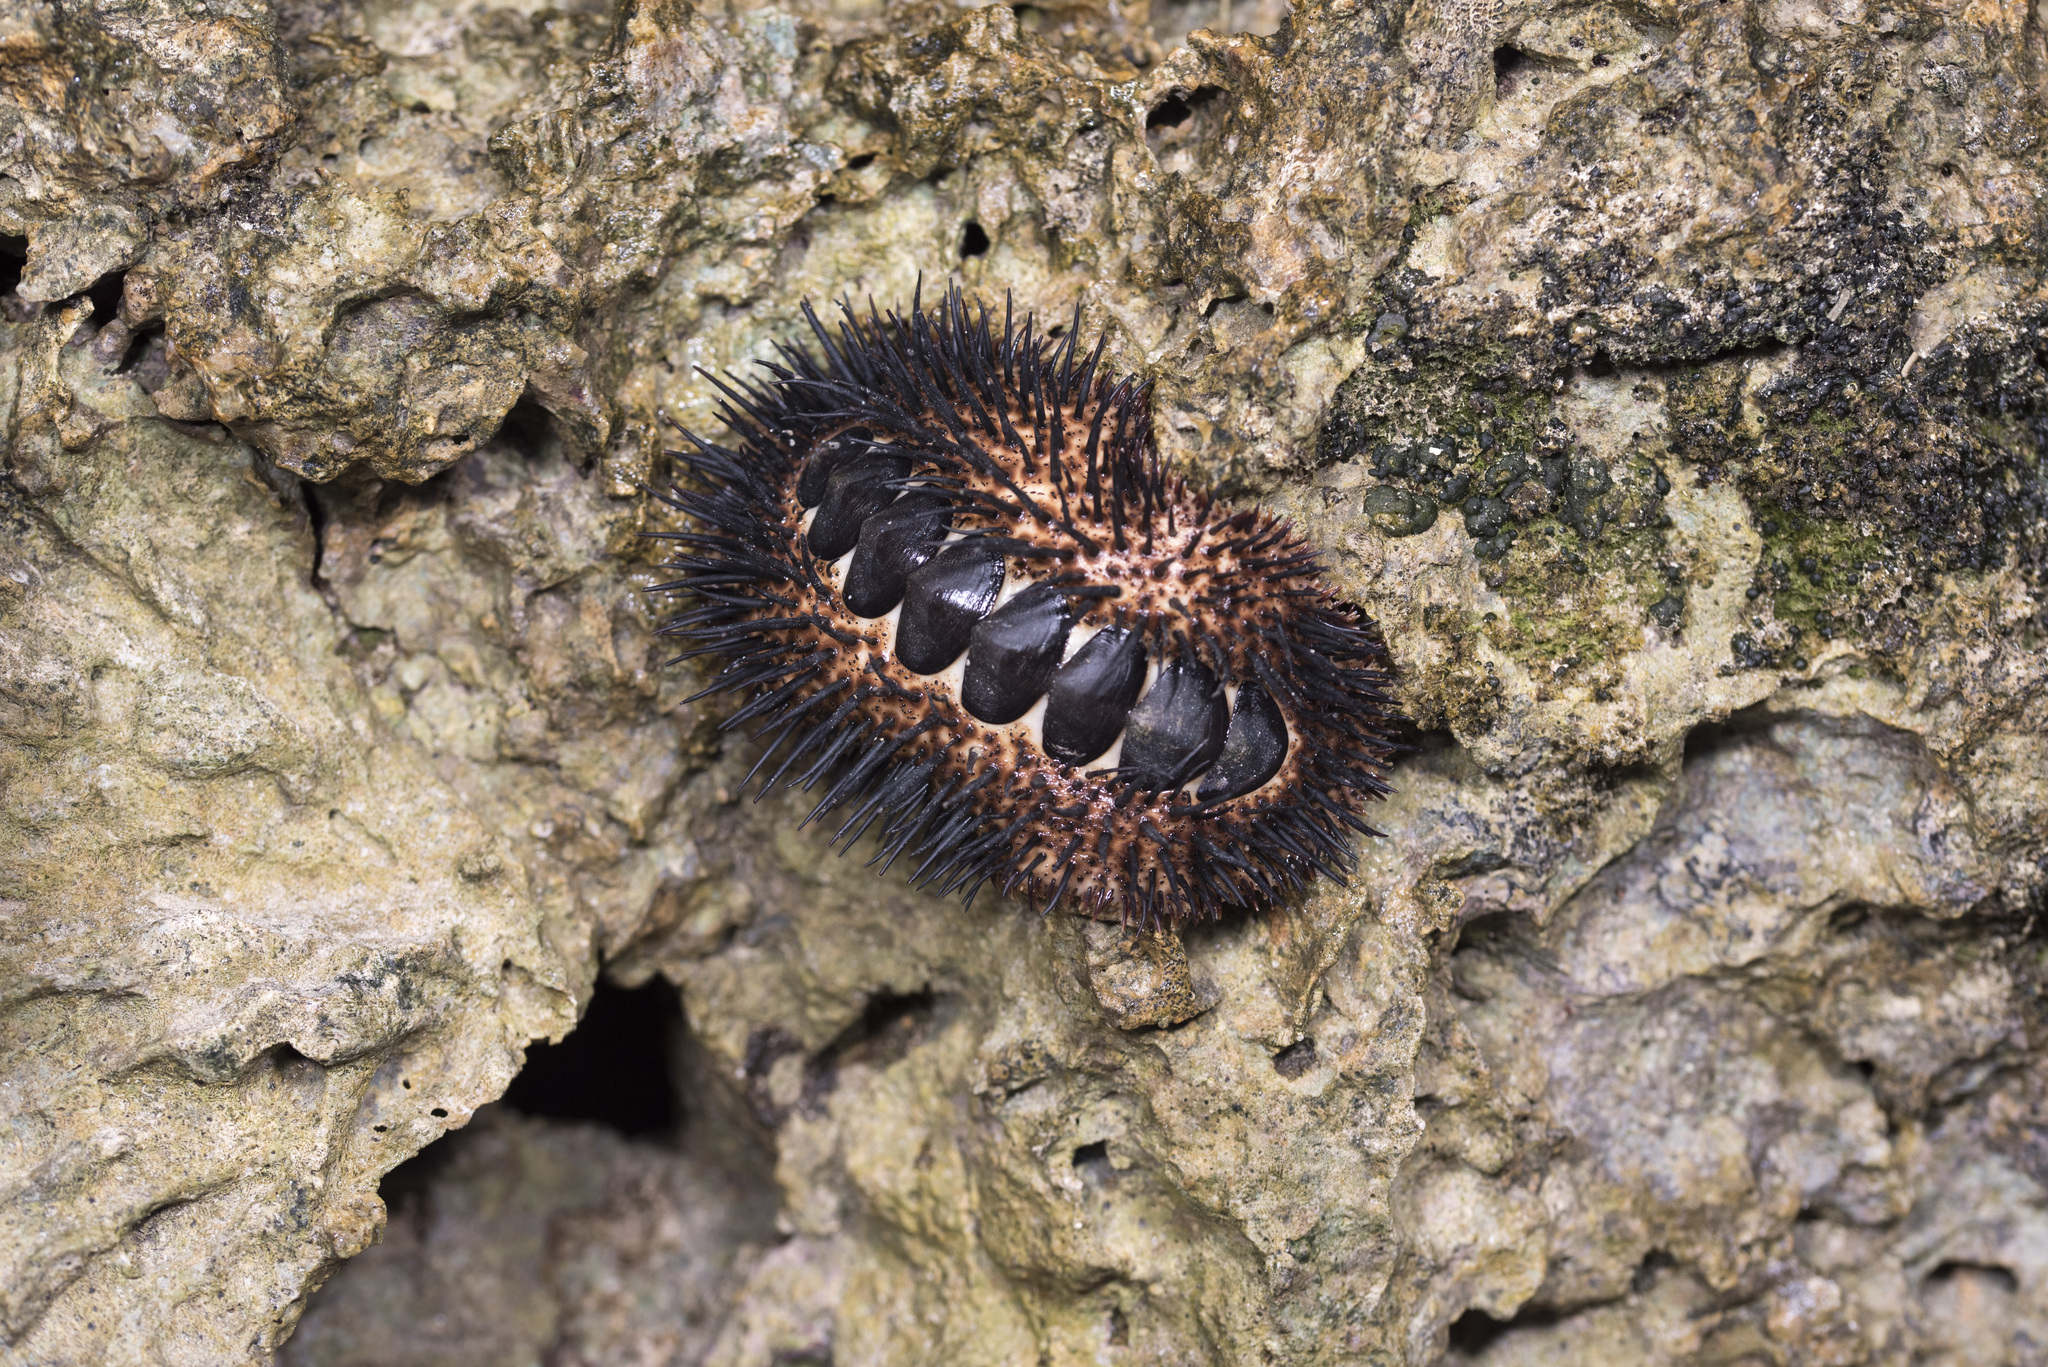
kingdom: Animalia
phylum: Mollusca
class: Polyplacophora
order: Chitonida
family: Chitonidae
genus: Acanthopleura
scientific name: Acanthopleura spinosa
